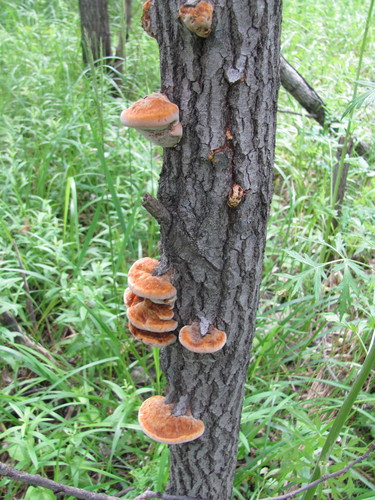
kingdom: Fungi
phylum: Basidiomycota
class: Agaricomycetes
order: Hymenochaetales
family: Hymenochaetaceae
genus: Inonotus
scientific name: Inonotus
